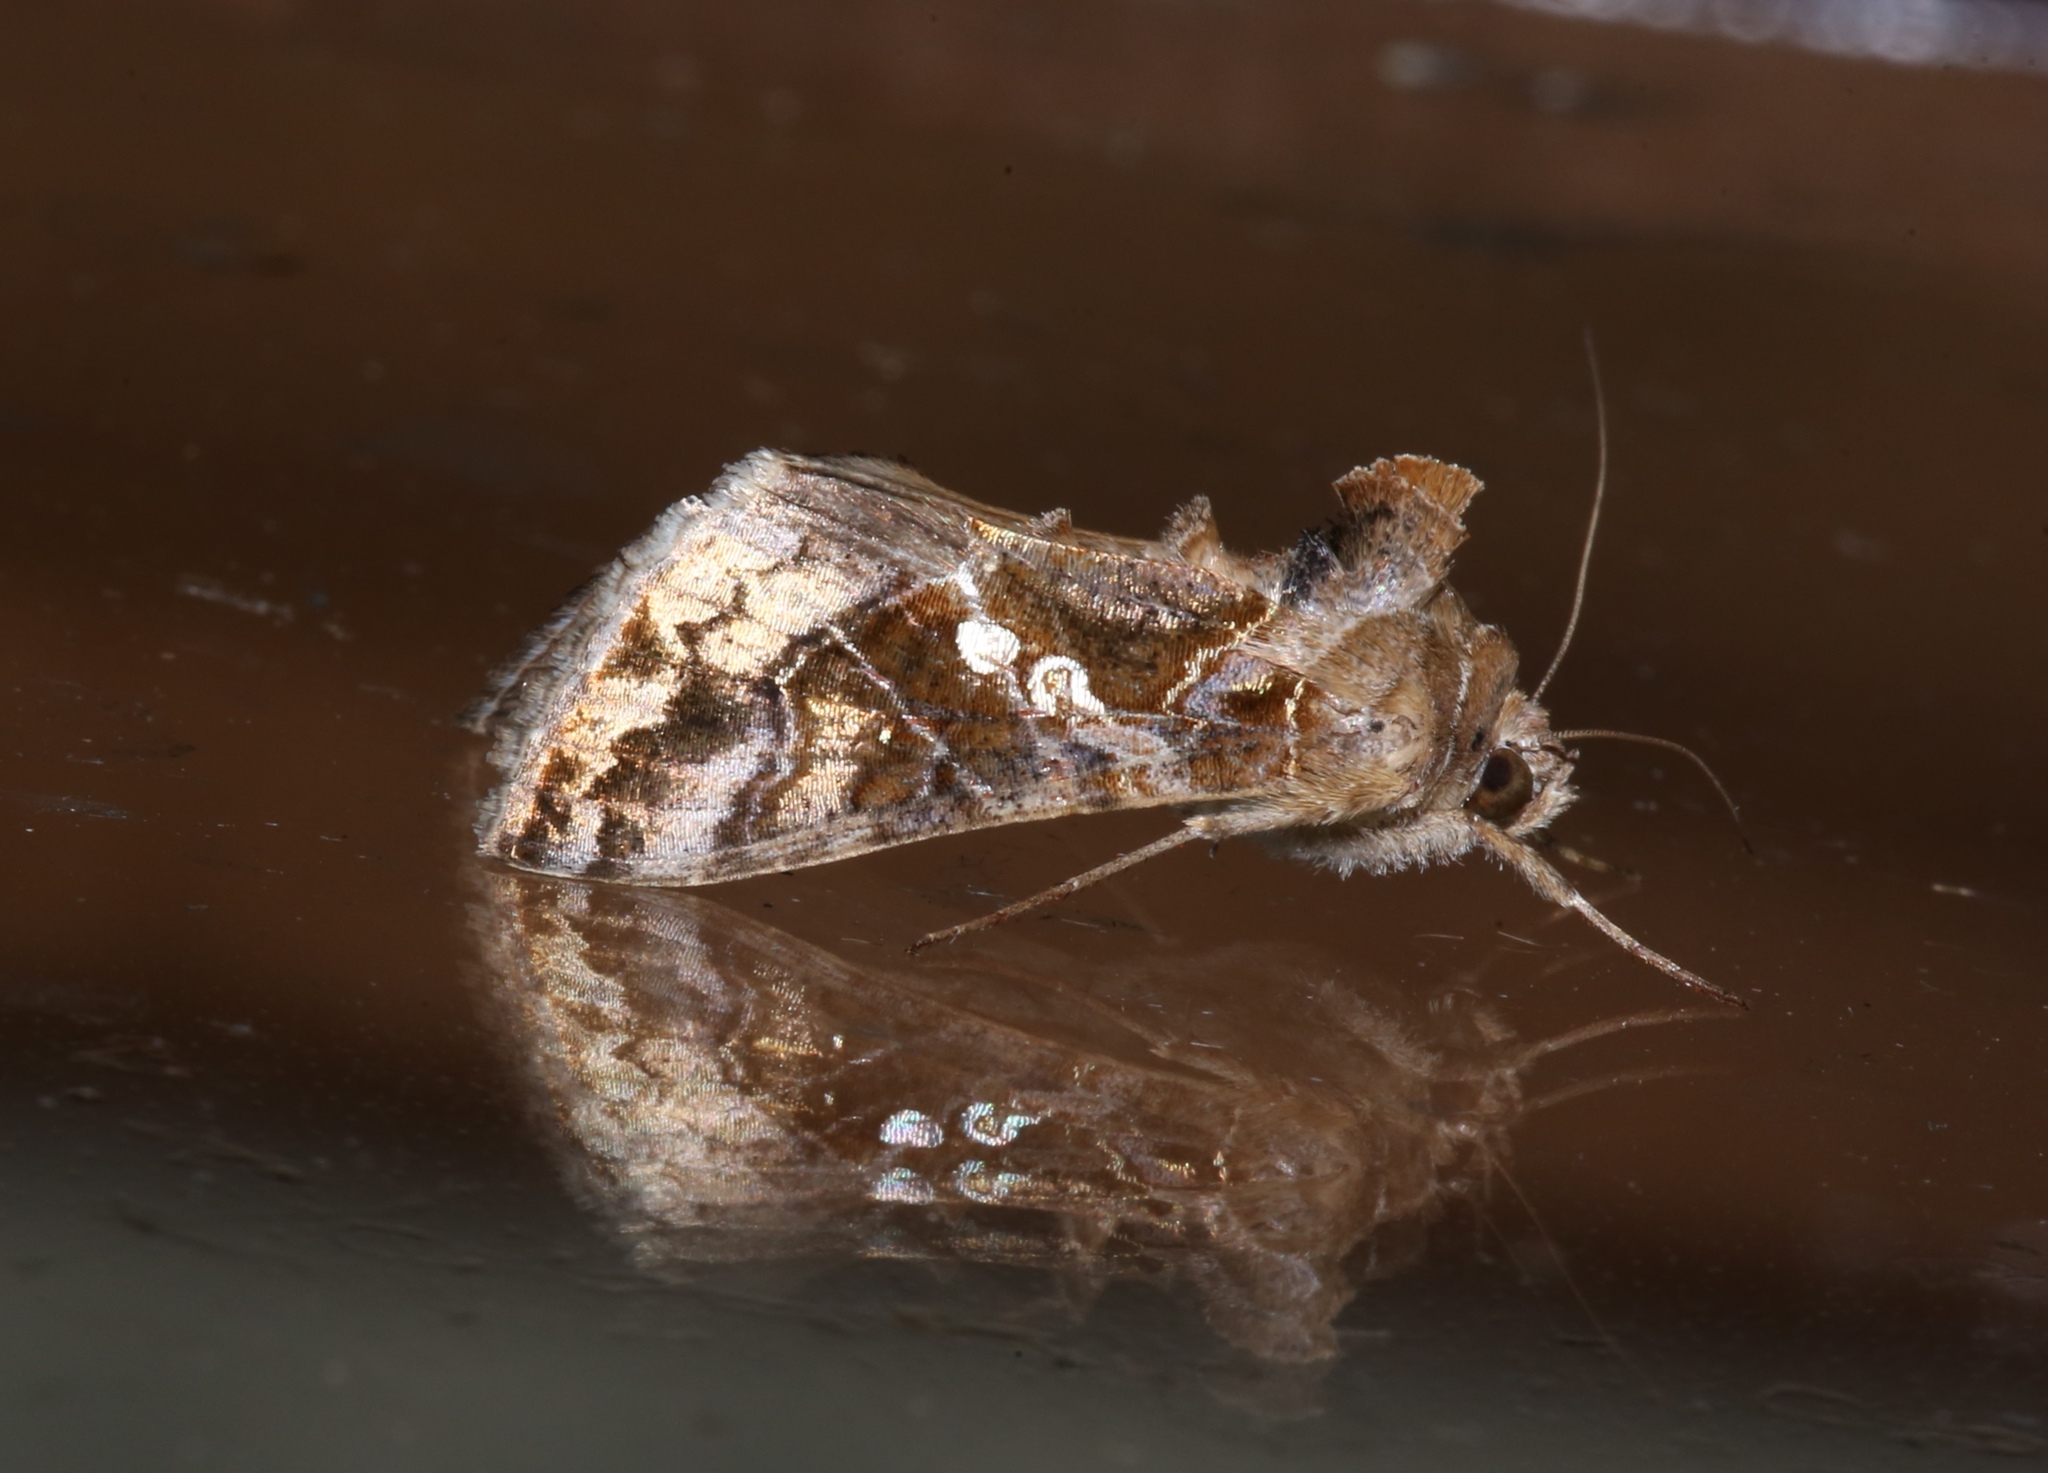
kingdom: Animalia
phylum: Arthropoda
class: Insecta
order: Lepidoptera
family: Noctuidae
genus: Chrysodeixis
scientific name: Chrysodeixis includens
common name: Cutworm moth
